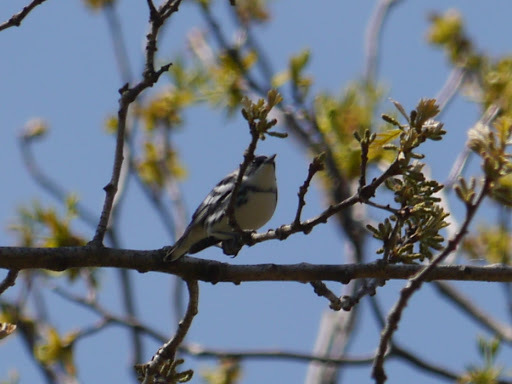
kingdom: Animalia
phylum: Chordata
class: Aves
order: Passeriformes
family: Parulidae
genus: Setophaga
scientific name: Setophaga cerulea
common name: Cerulean warbler
